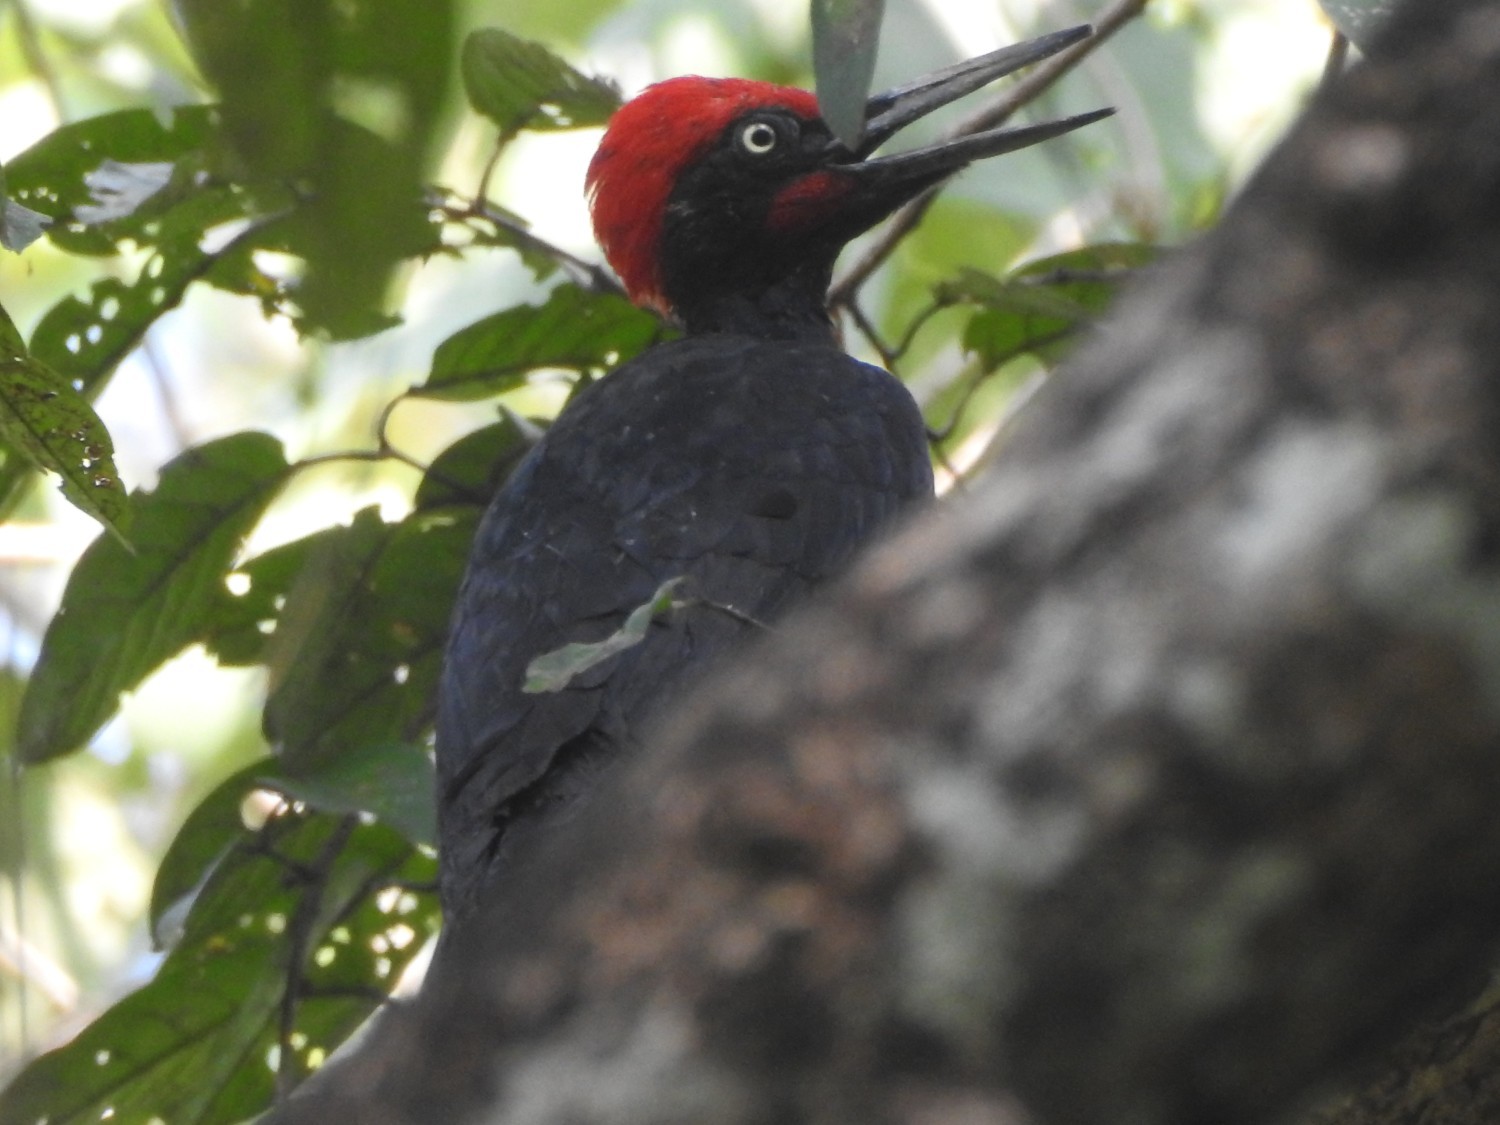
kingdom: Animalia
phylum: Chordata
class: Aves
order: Piciformes
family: Picidae
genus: Dryocopus
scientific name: Dryocopus javensis
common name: White-bellied woodpecker
